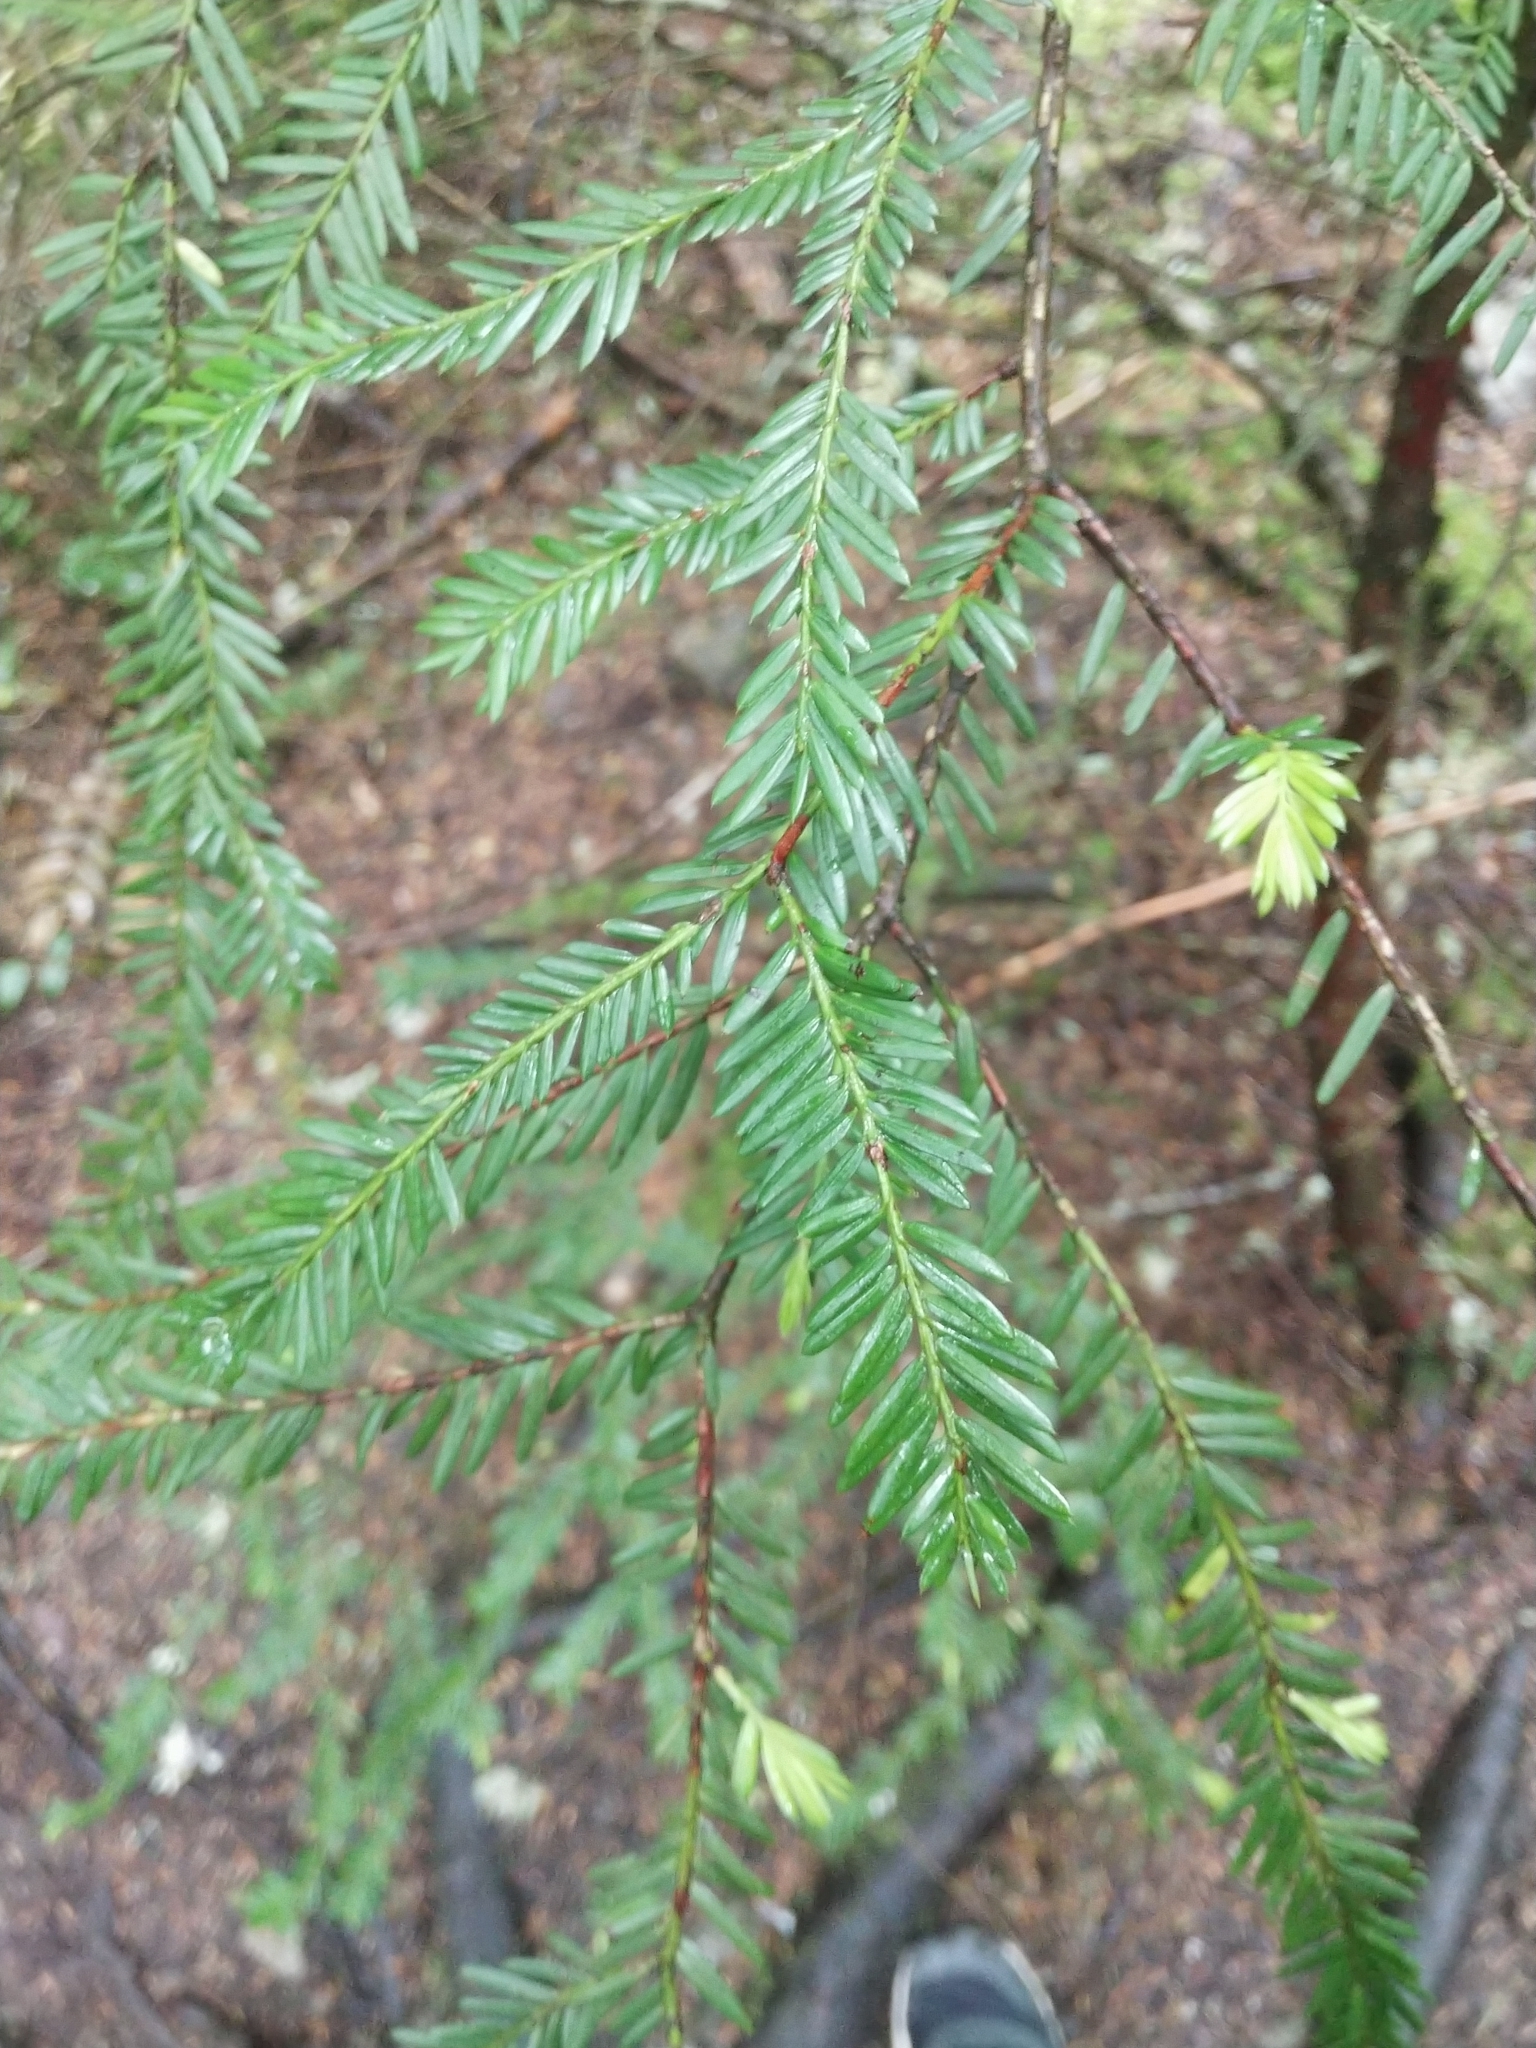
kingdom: Plantae
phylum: Tracheophyta
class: Pinopsida
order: Pinales
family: Taxaceae
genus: Taxus
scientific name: Taxus brevifolia
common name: Pacific yew
